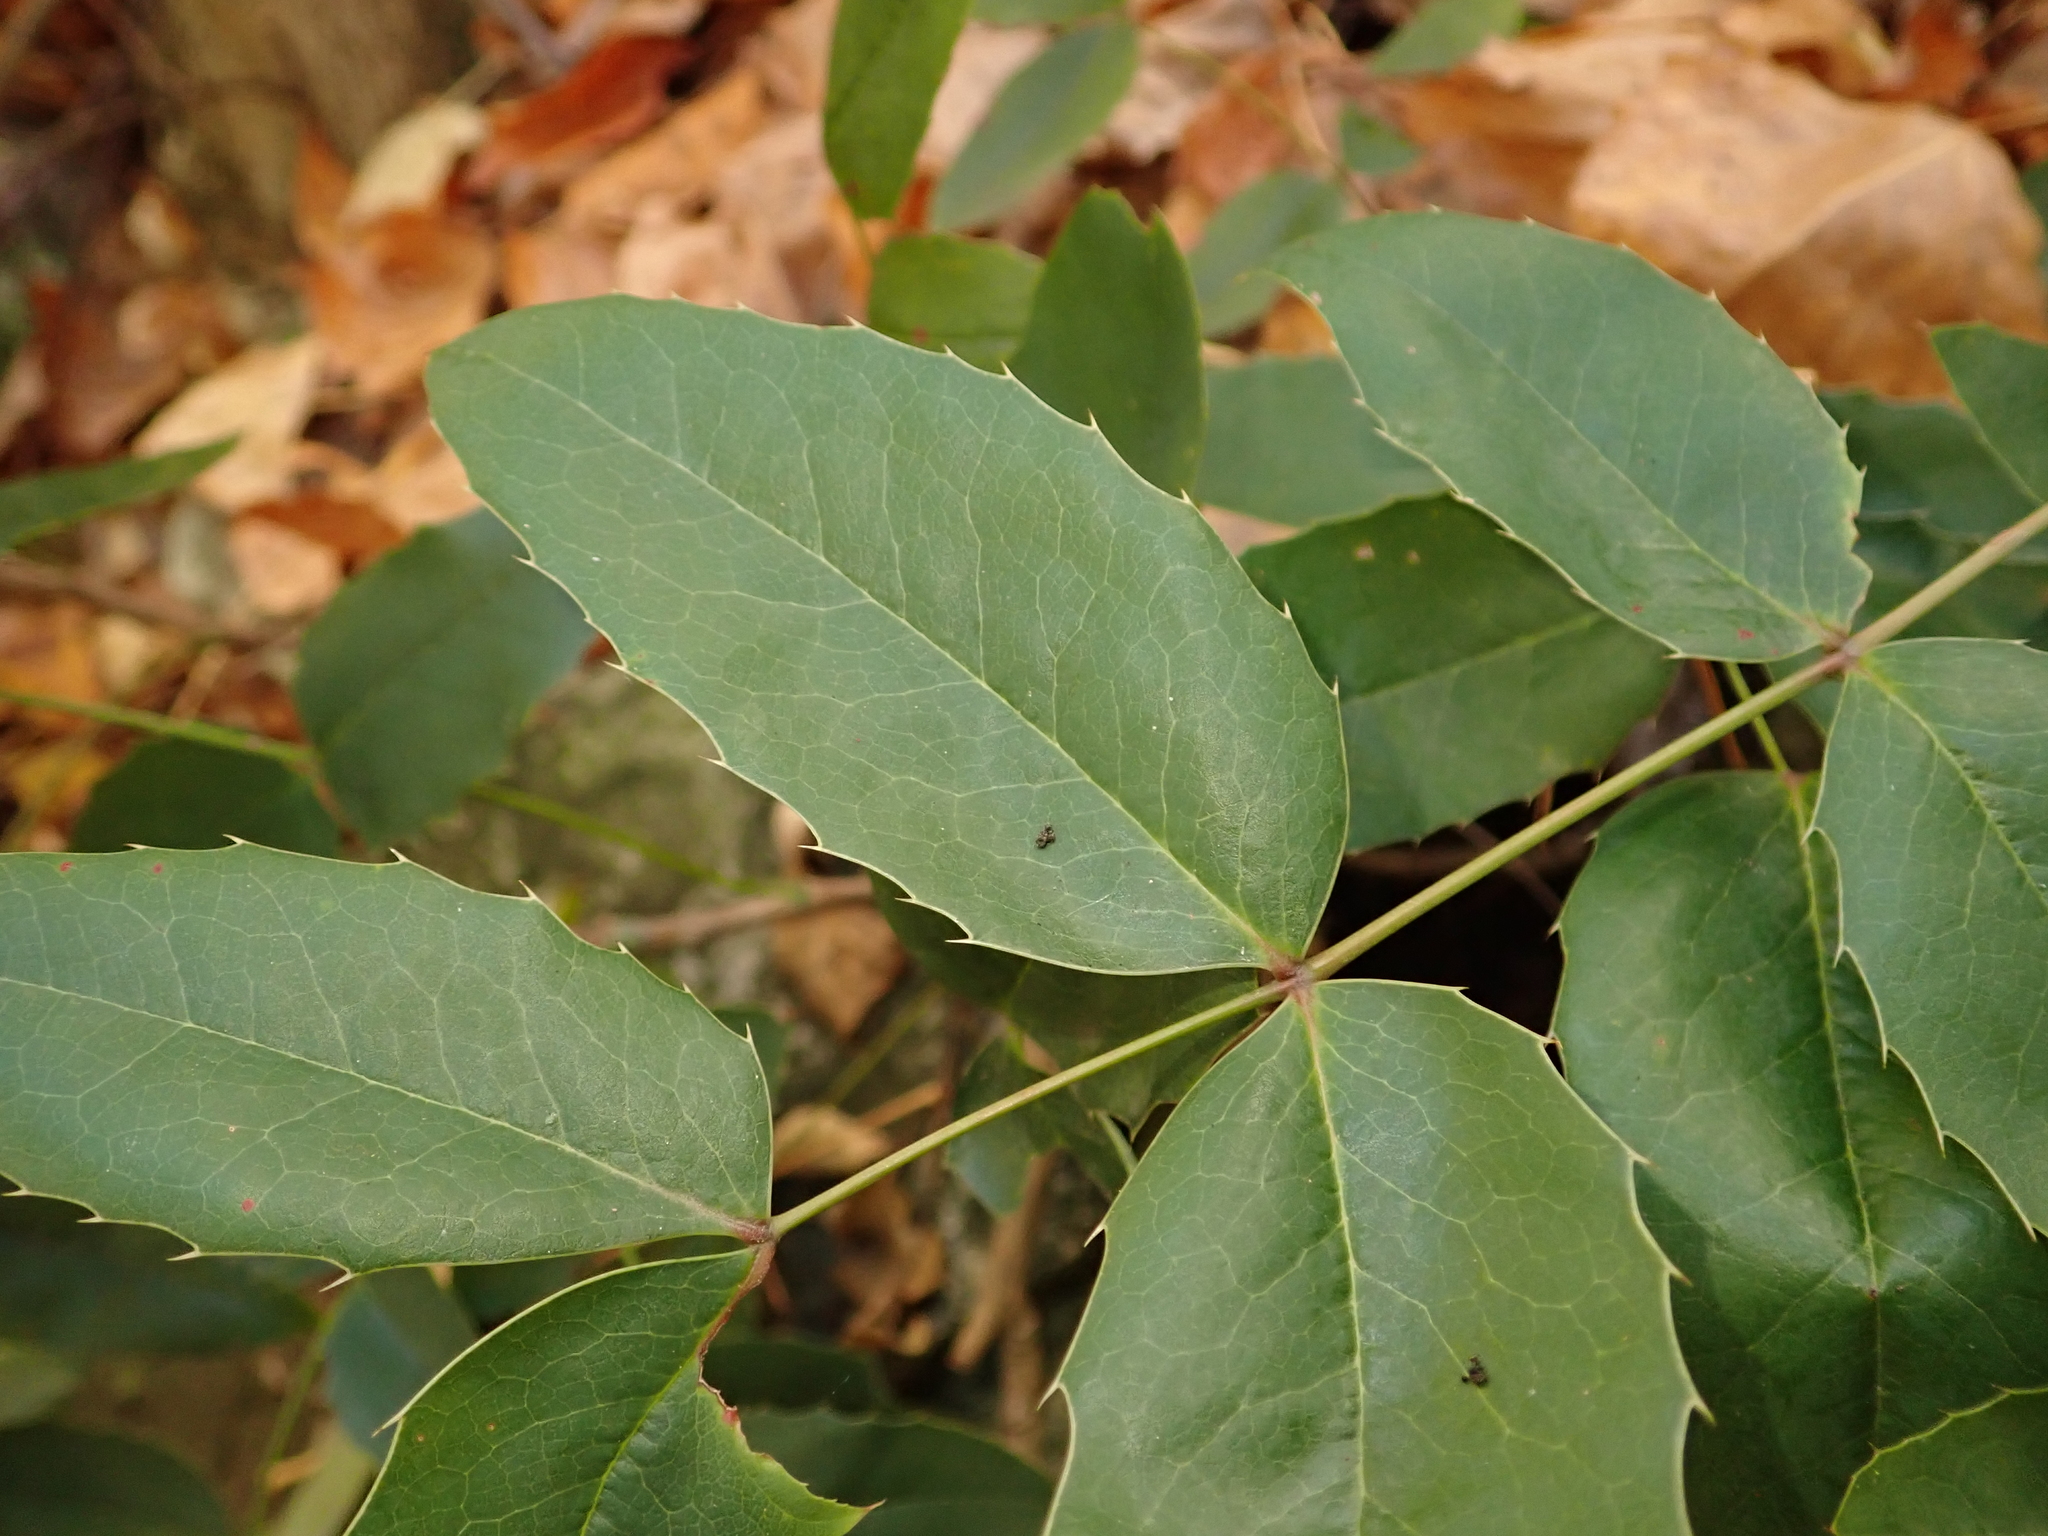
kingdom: Plantae
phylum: Tracheophyta
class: Magnoliopsida
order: Ranunculales
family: Berberidaceae
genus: Mahonia
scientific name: Mahonia aquifolium
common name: Oregon-grape
